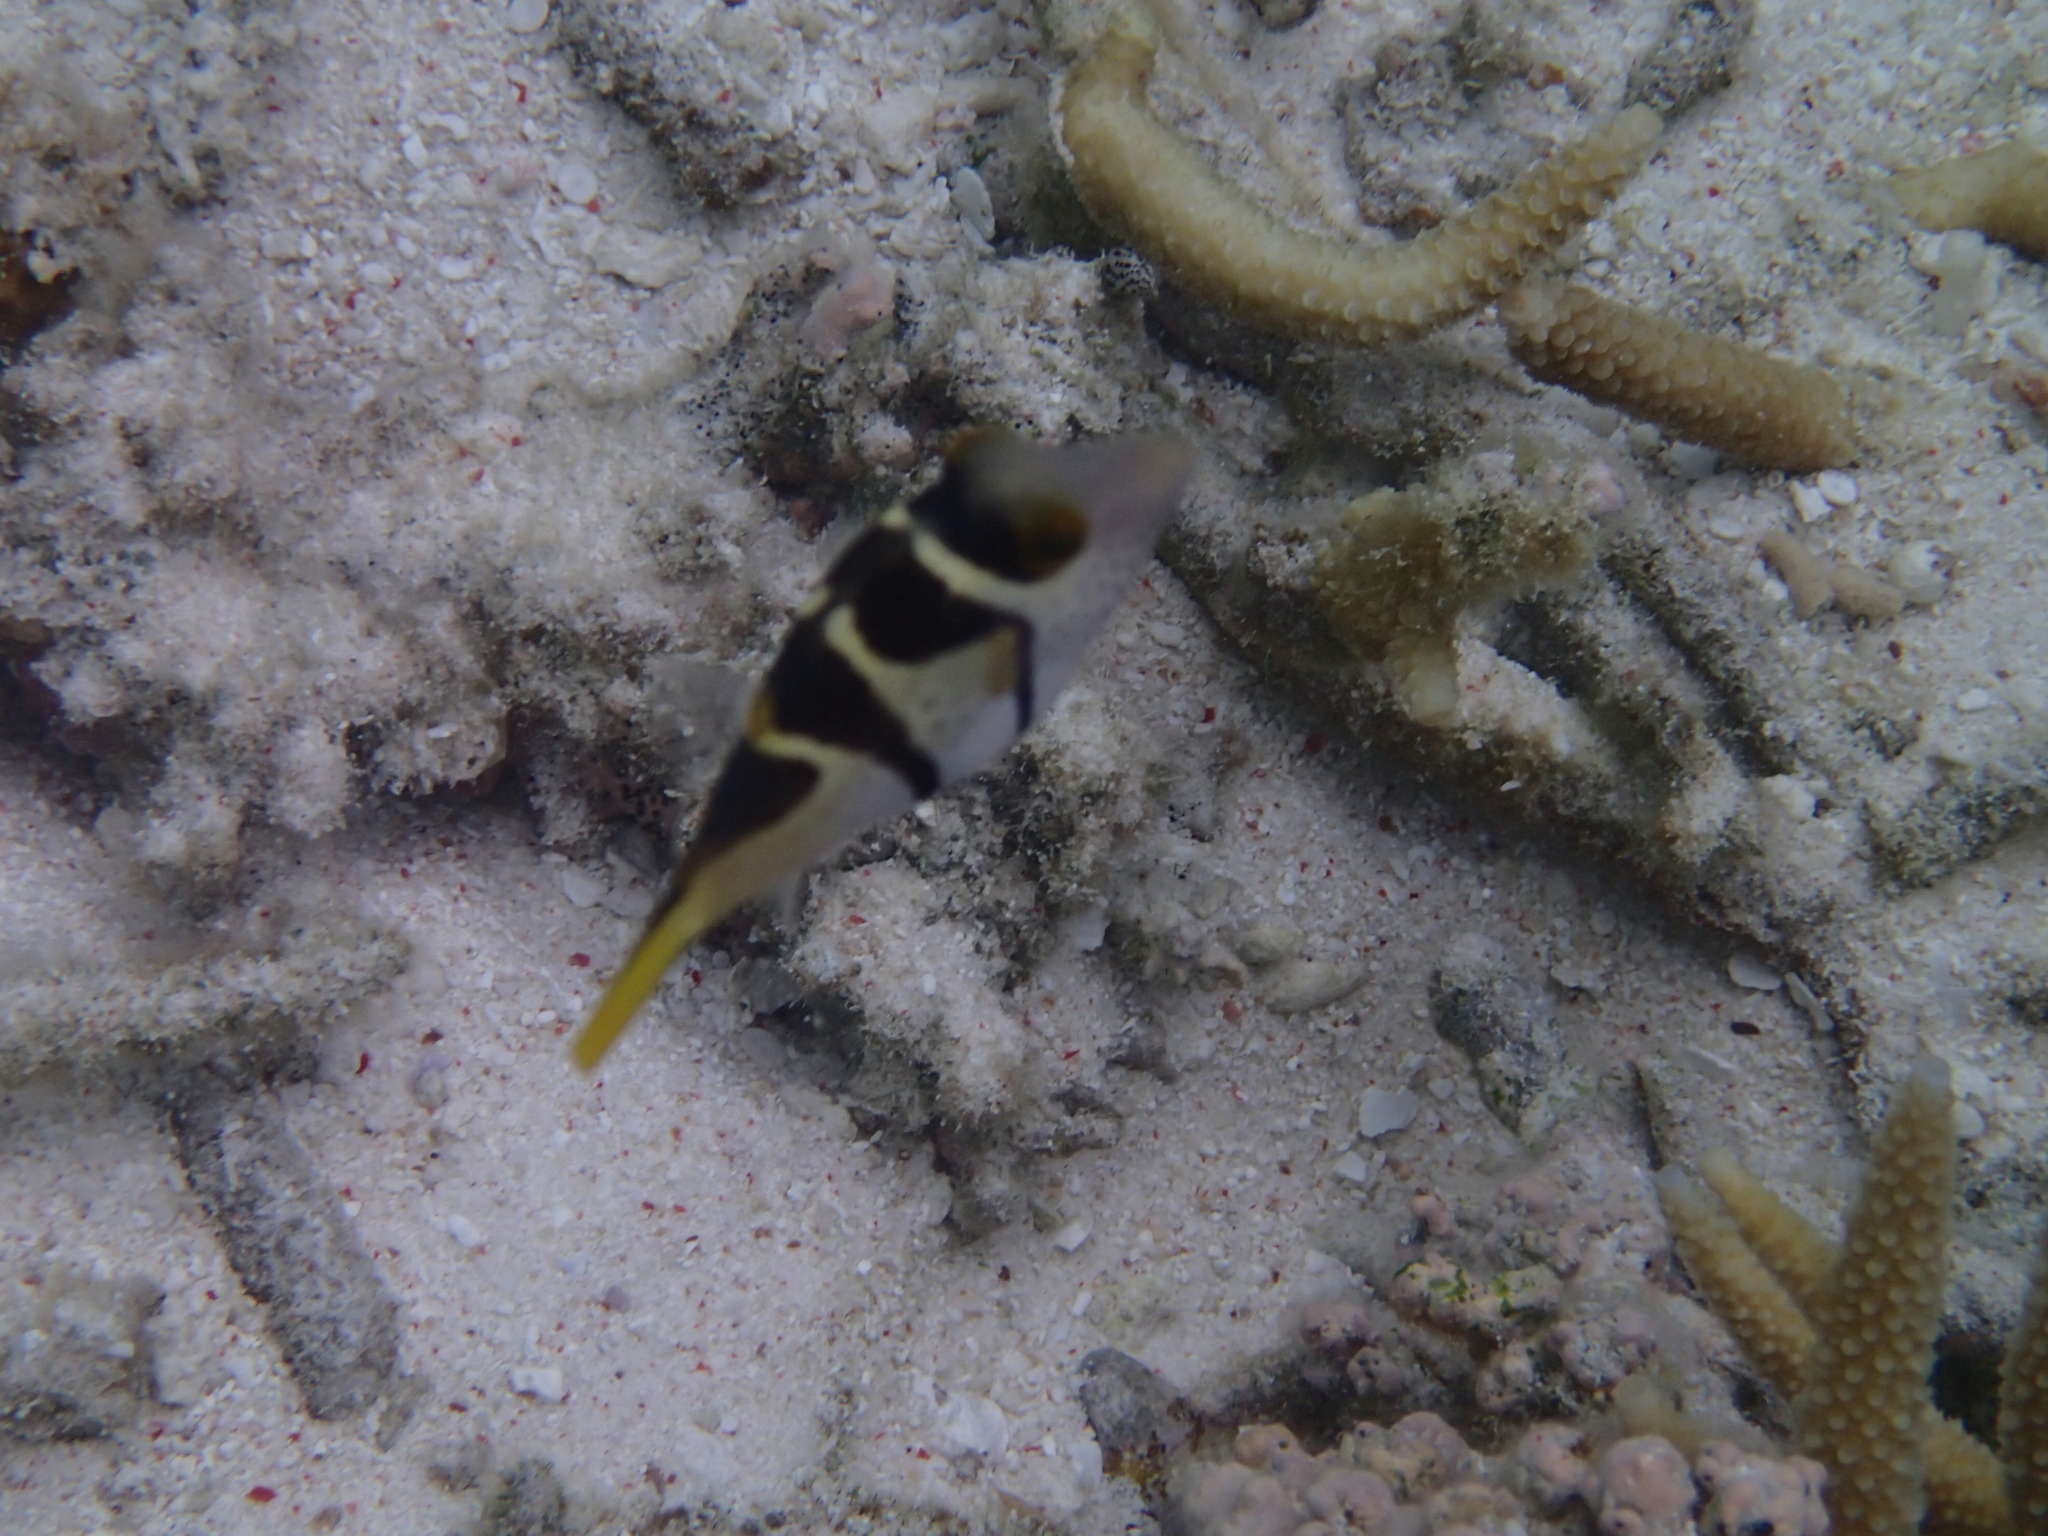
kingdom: Animalia
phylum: Chordata
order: Tetraodontiformes
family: Tetraodontidae
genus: Canthigaster
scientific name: Canthigaster valentini
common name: Banded toby
